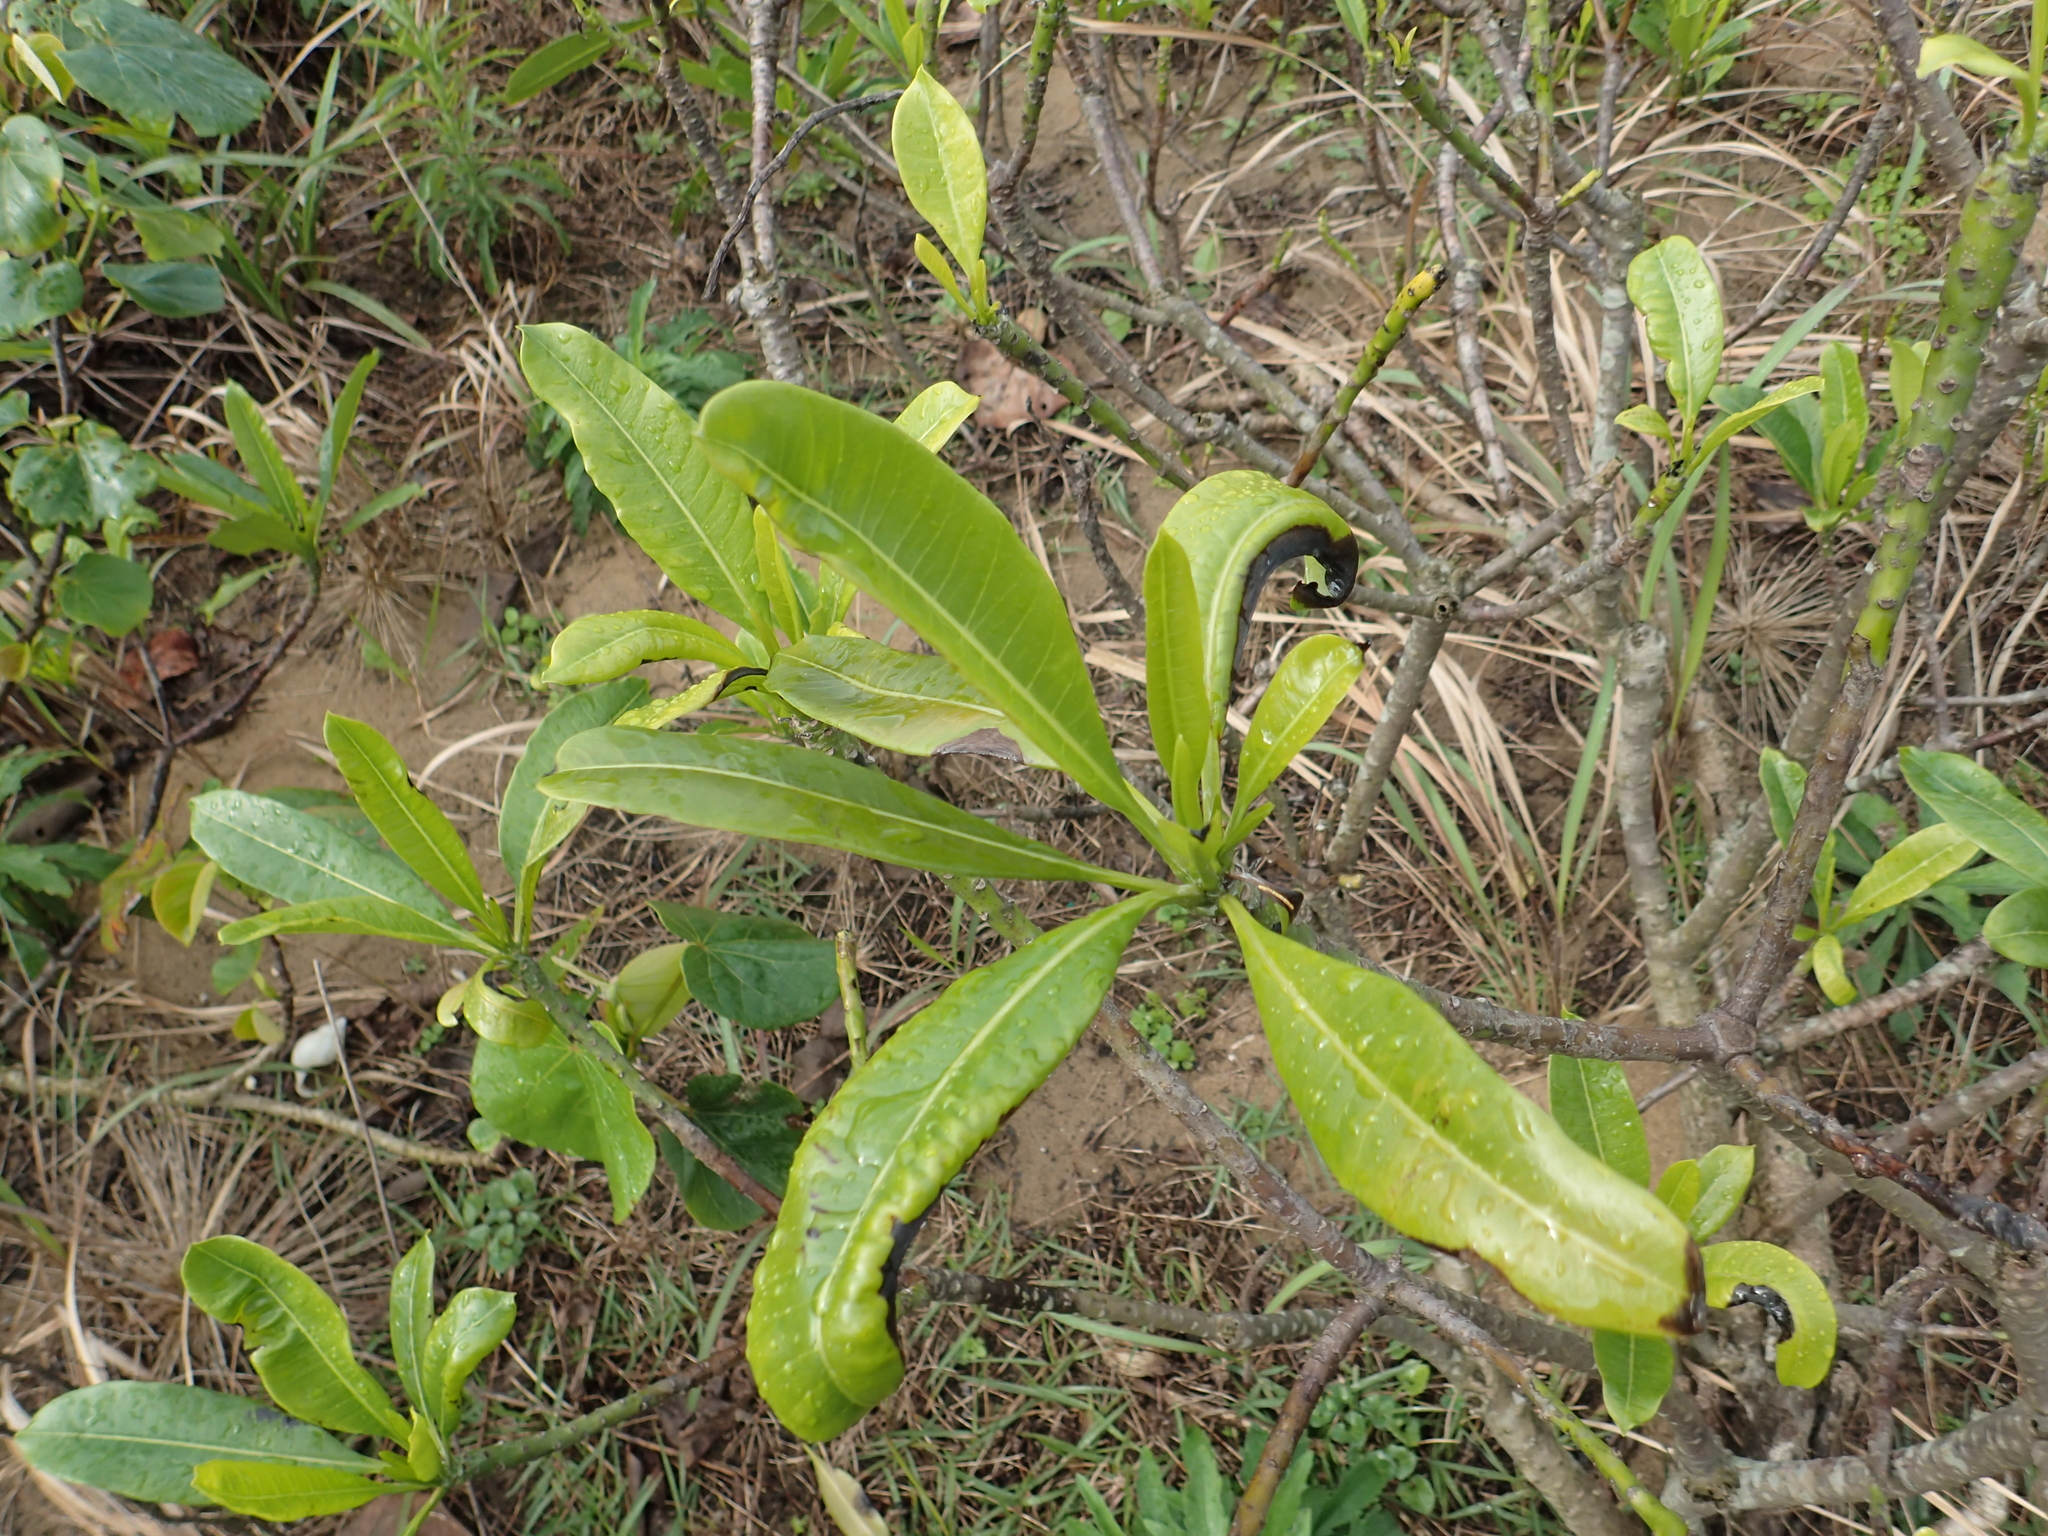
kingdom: Plantae
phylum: Tracheophyta
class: Magnoliopsida
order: Gentianales
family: Apocynaceae
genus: Cerbera
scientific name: Cerbera manghas
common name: Reva
